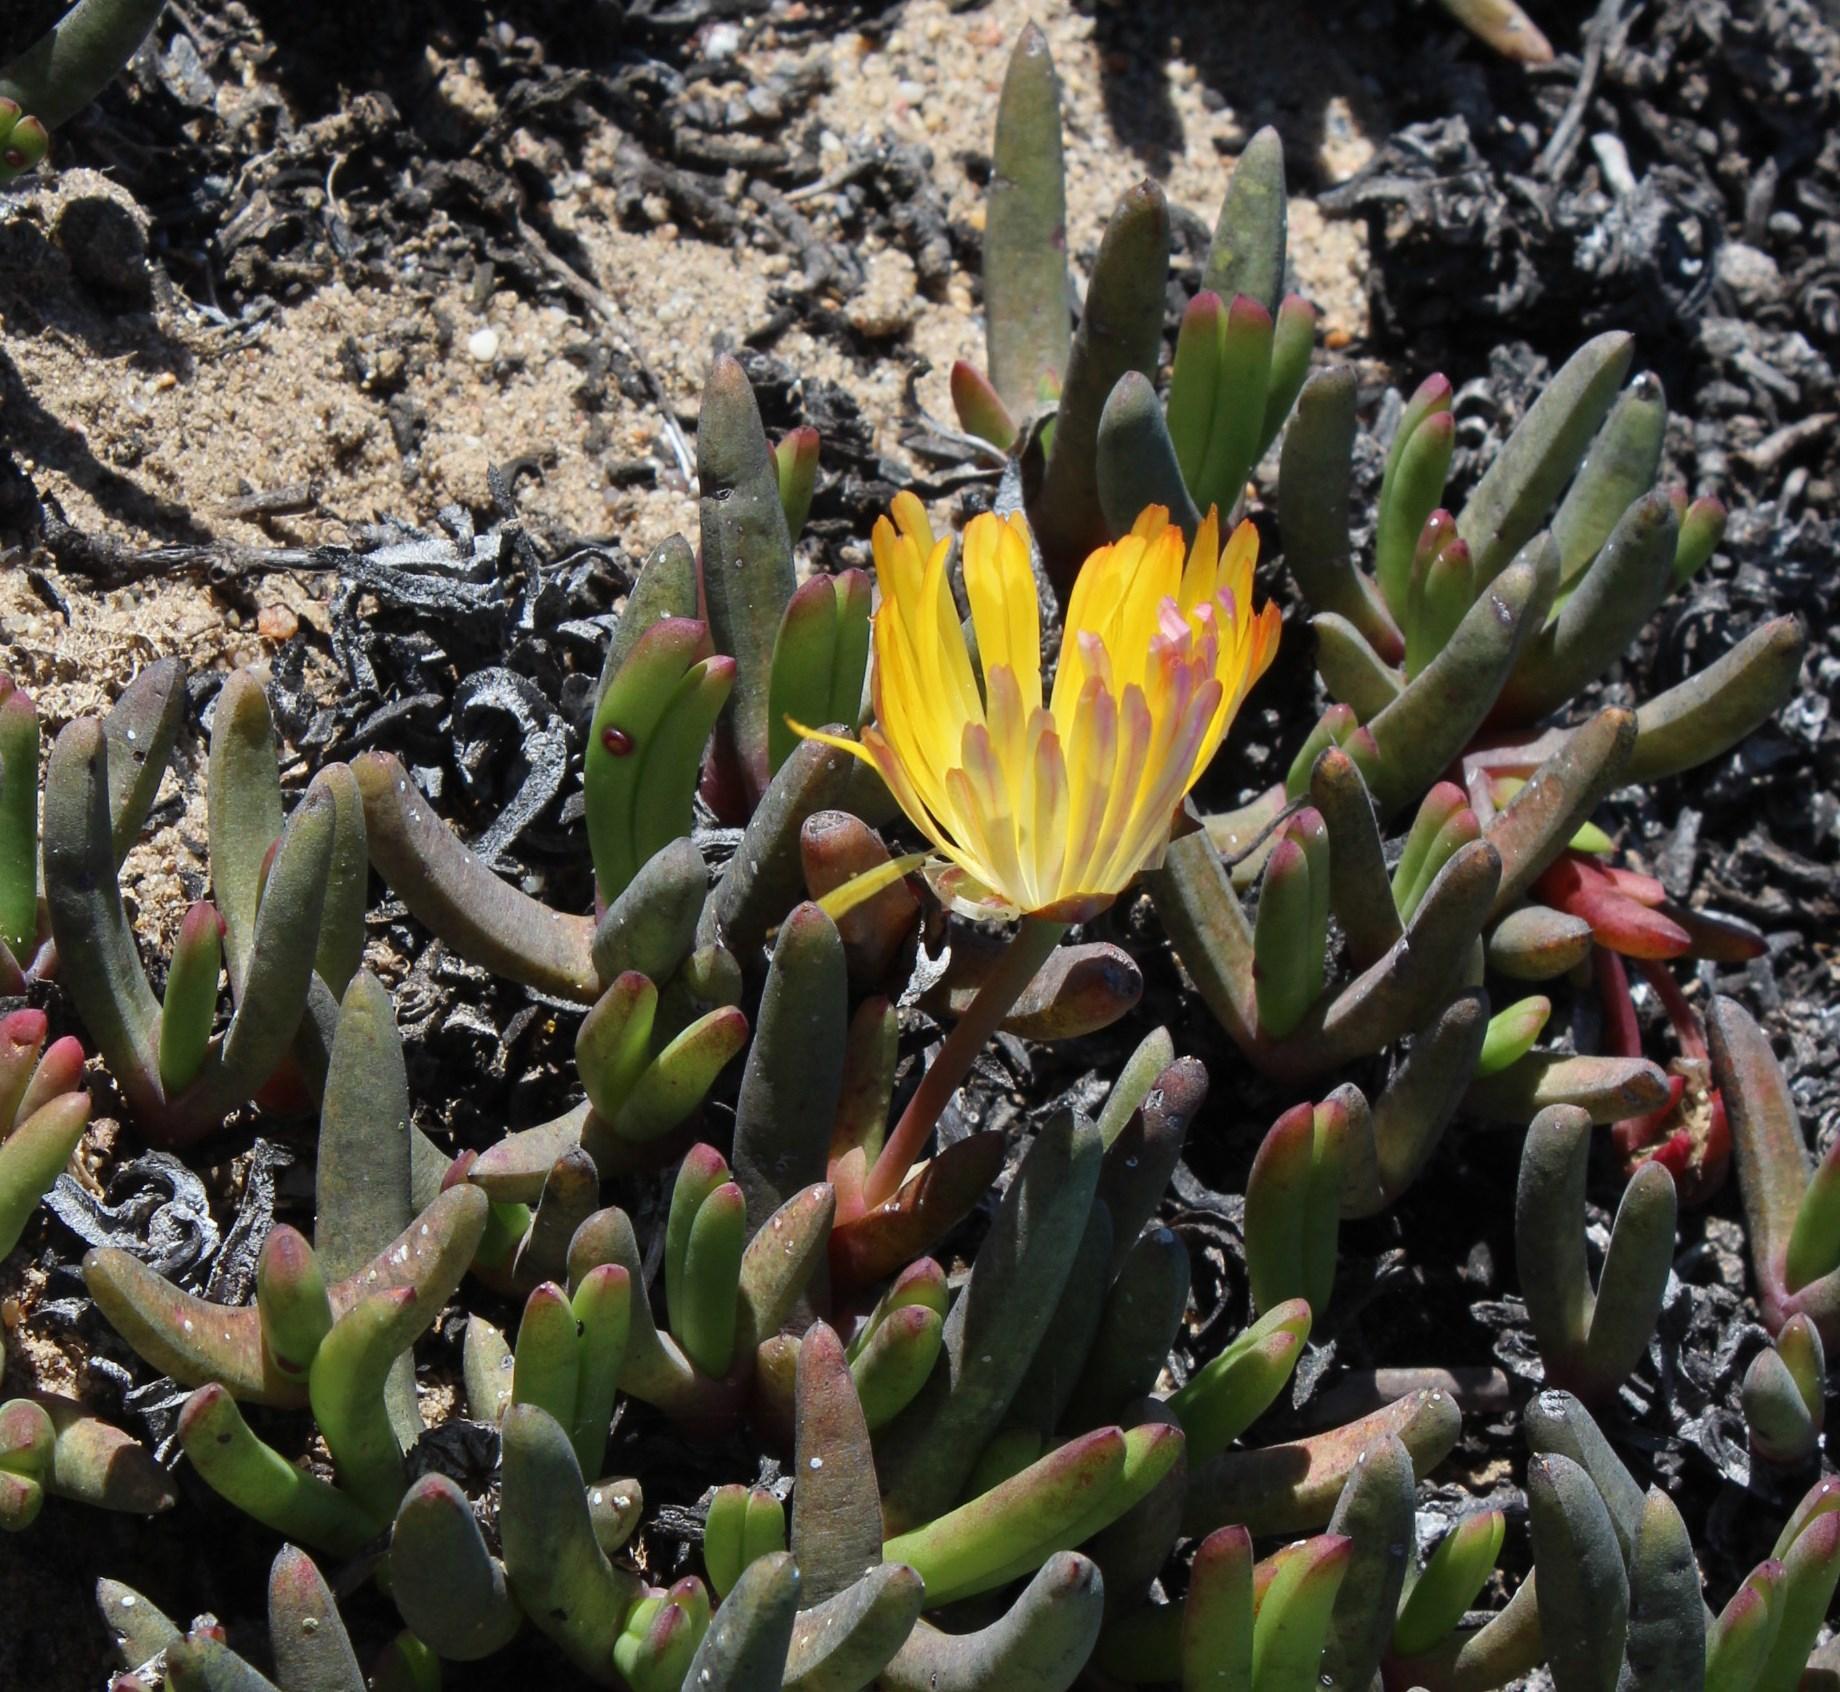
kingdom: Plantae
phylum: Tracheophyta
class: Magnoliopsida
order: Caryophyllales
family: Aizoaceae
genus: Cephalophyllum
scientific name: Cephalophyllum inaequale
